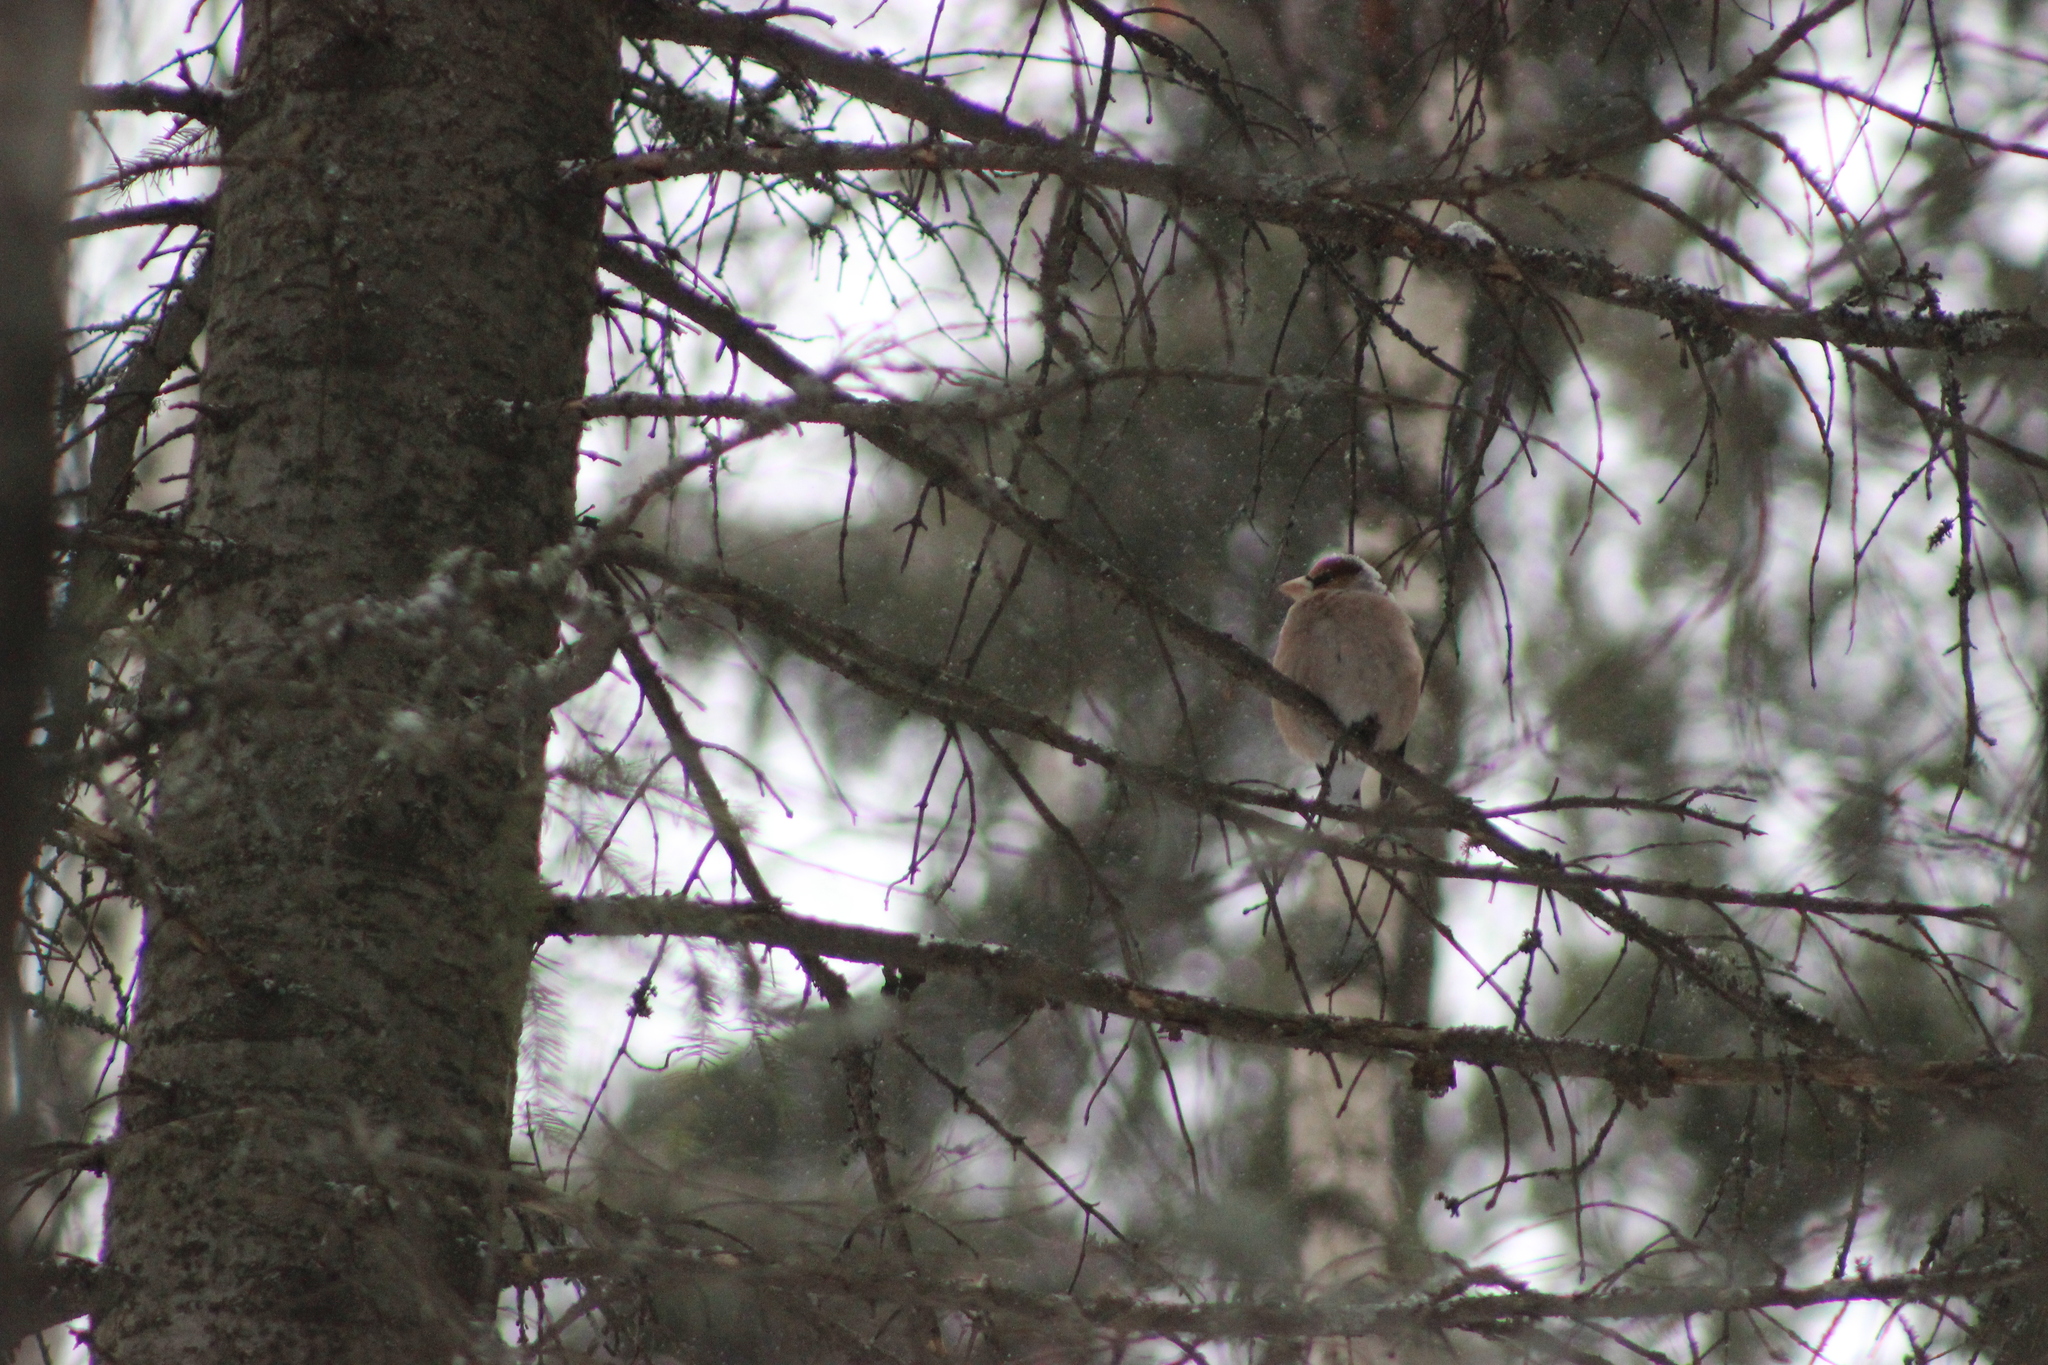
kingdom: Animalia
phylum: Chordata
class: Aves
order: Passeriformes
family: Fringillidae
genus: Coccothraustes
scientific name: Coccothraustes coccothraustes
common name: Hawfinch
